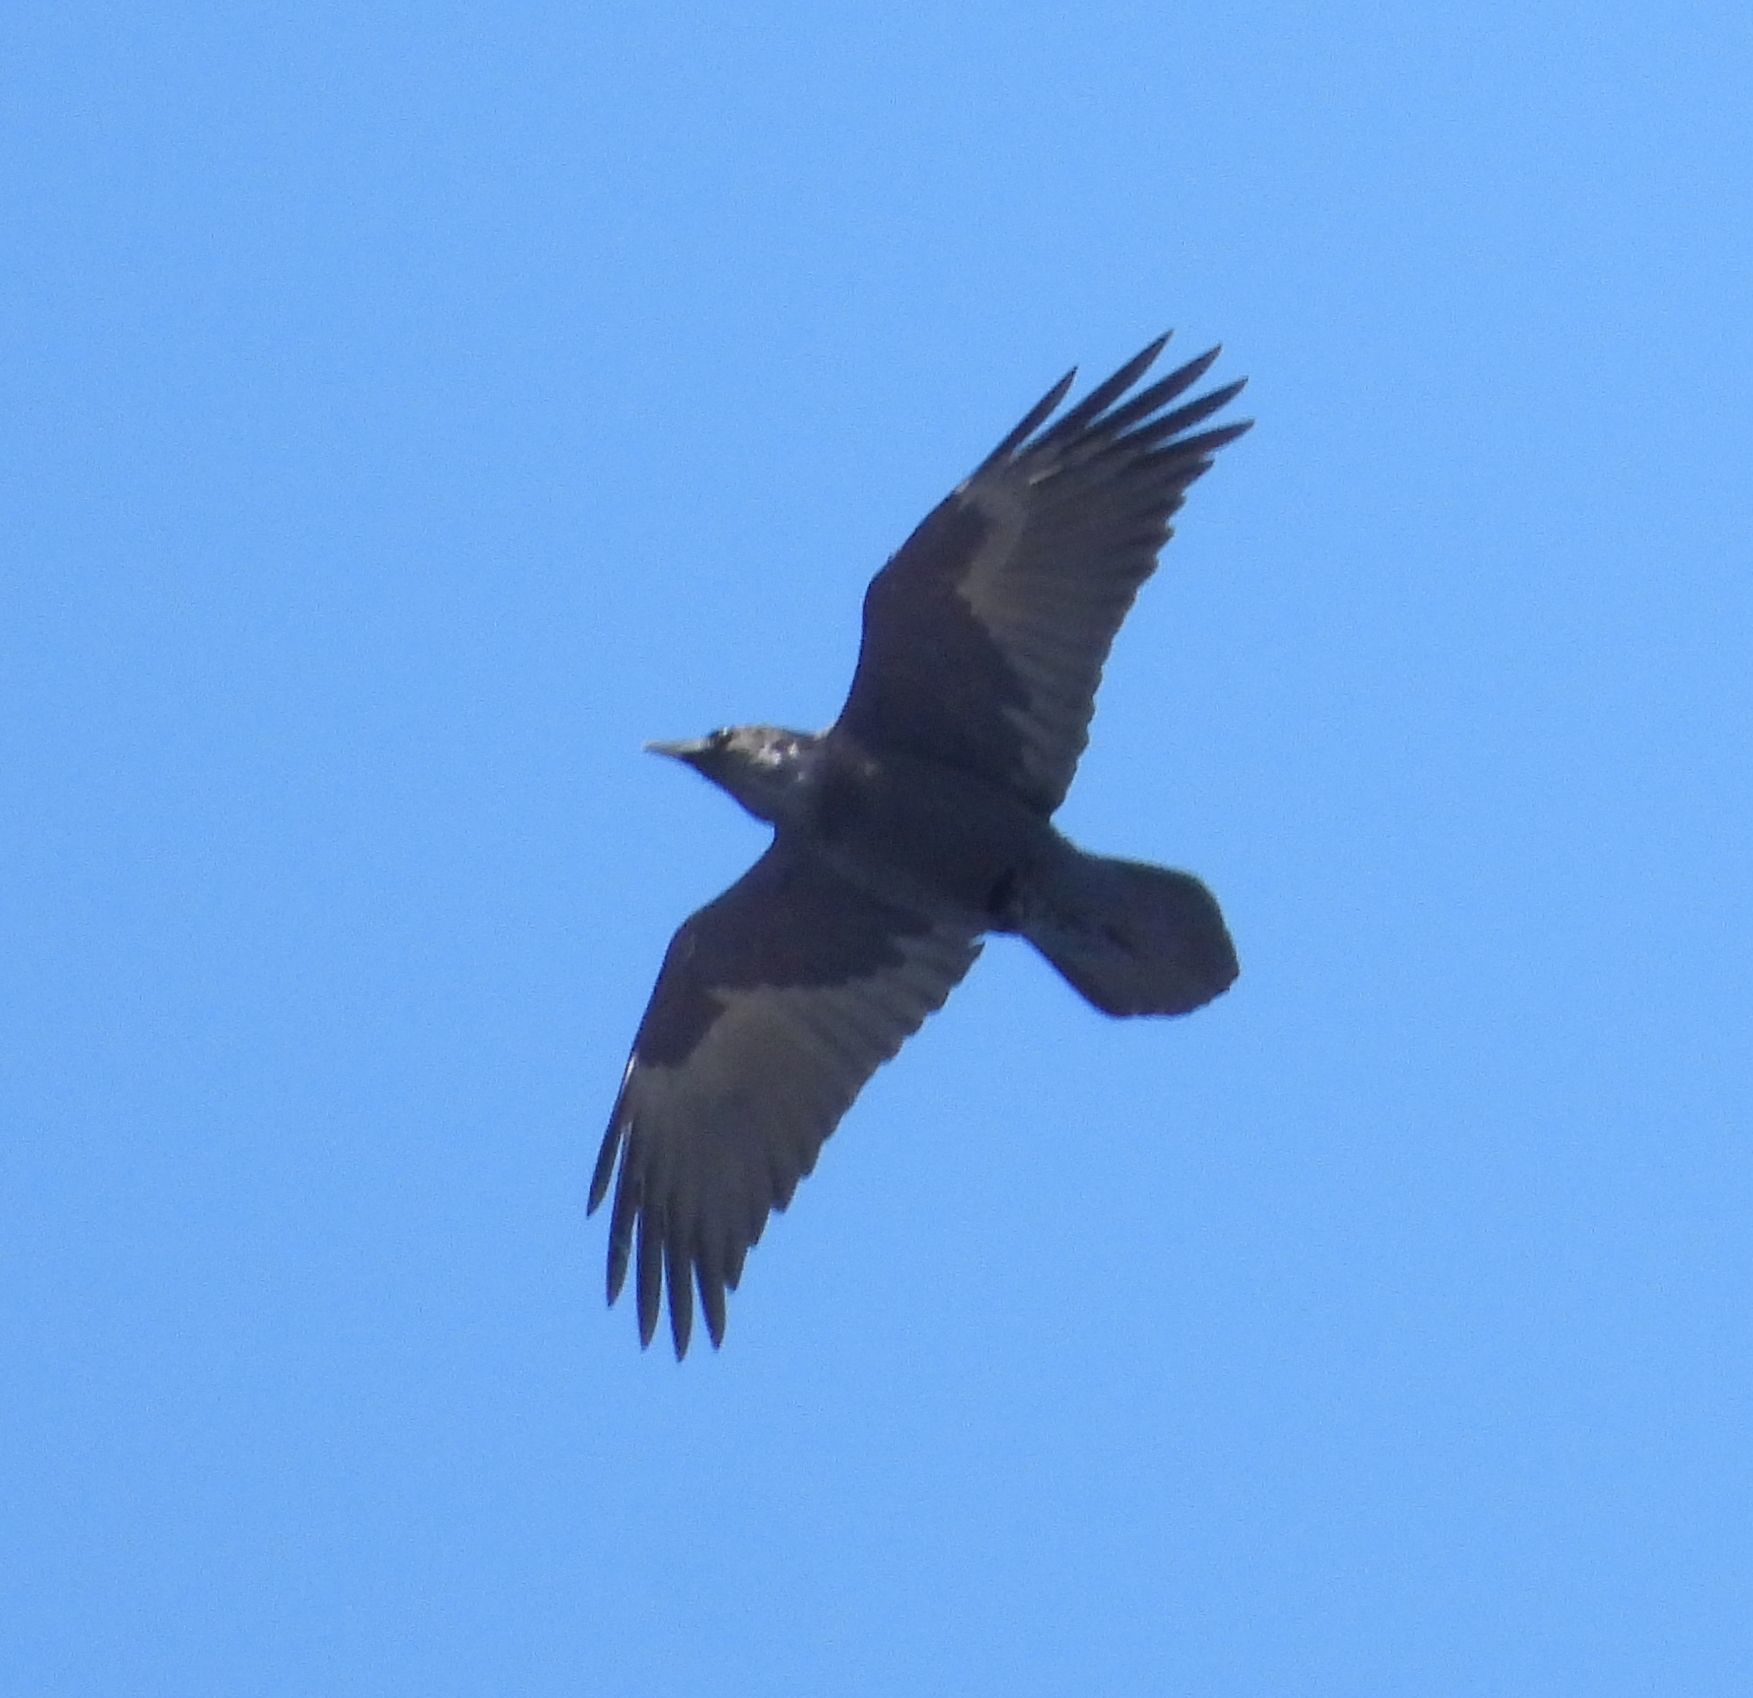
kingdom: Animalia
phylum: Chordata
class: Aves
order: Passeriformes
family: Corvidae
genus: Corvus
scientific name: Corvus corax
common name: Common raven
